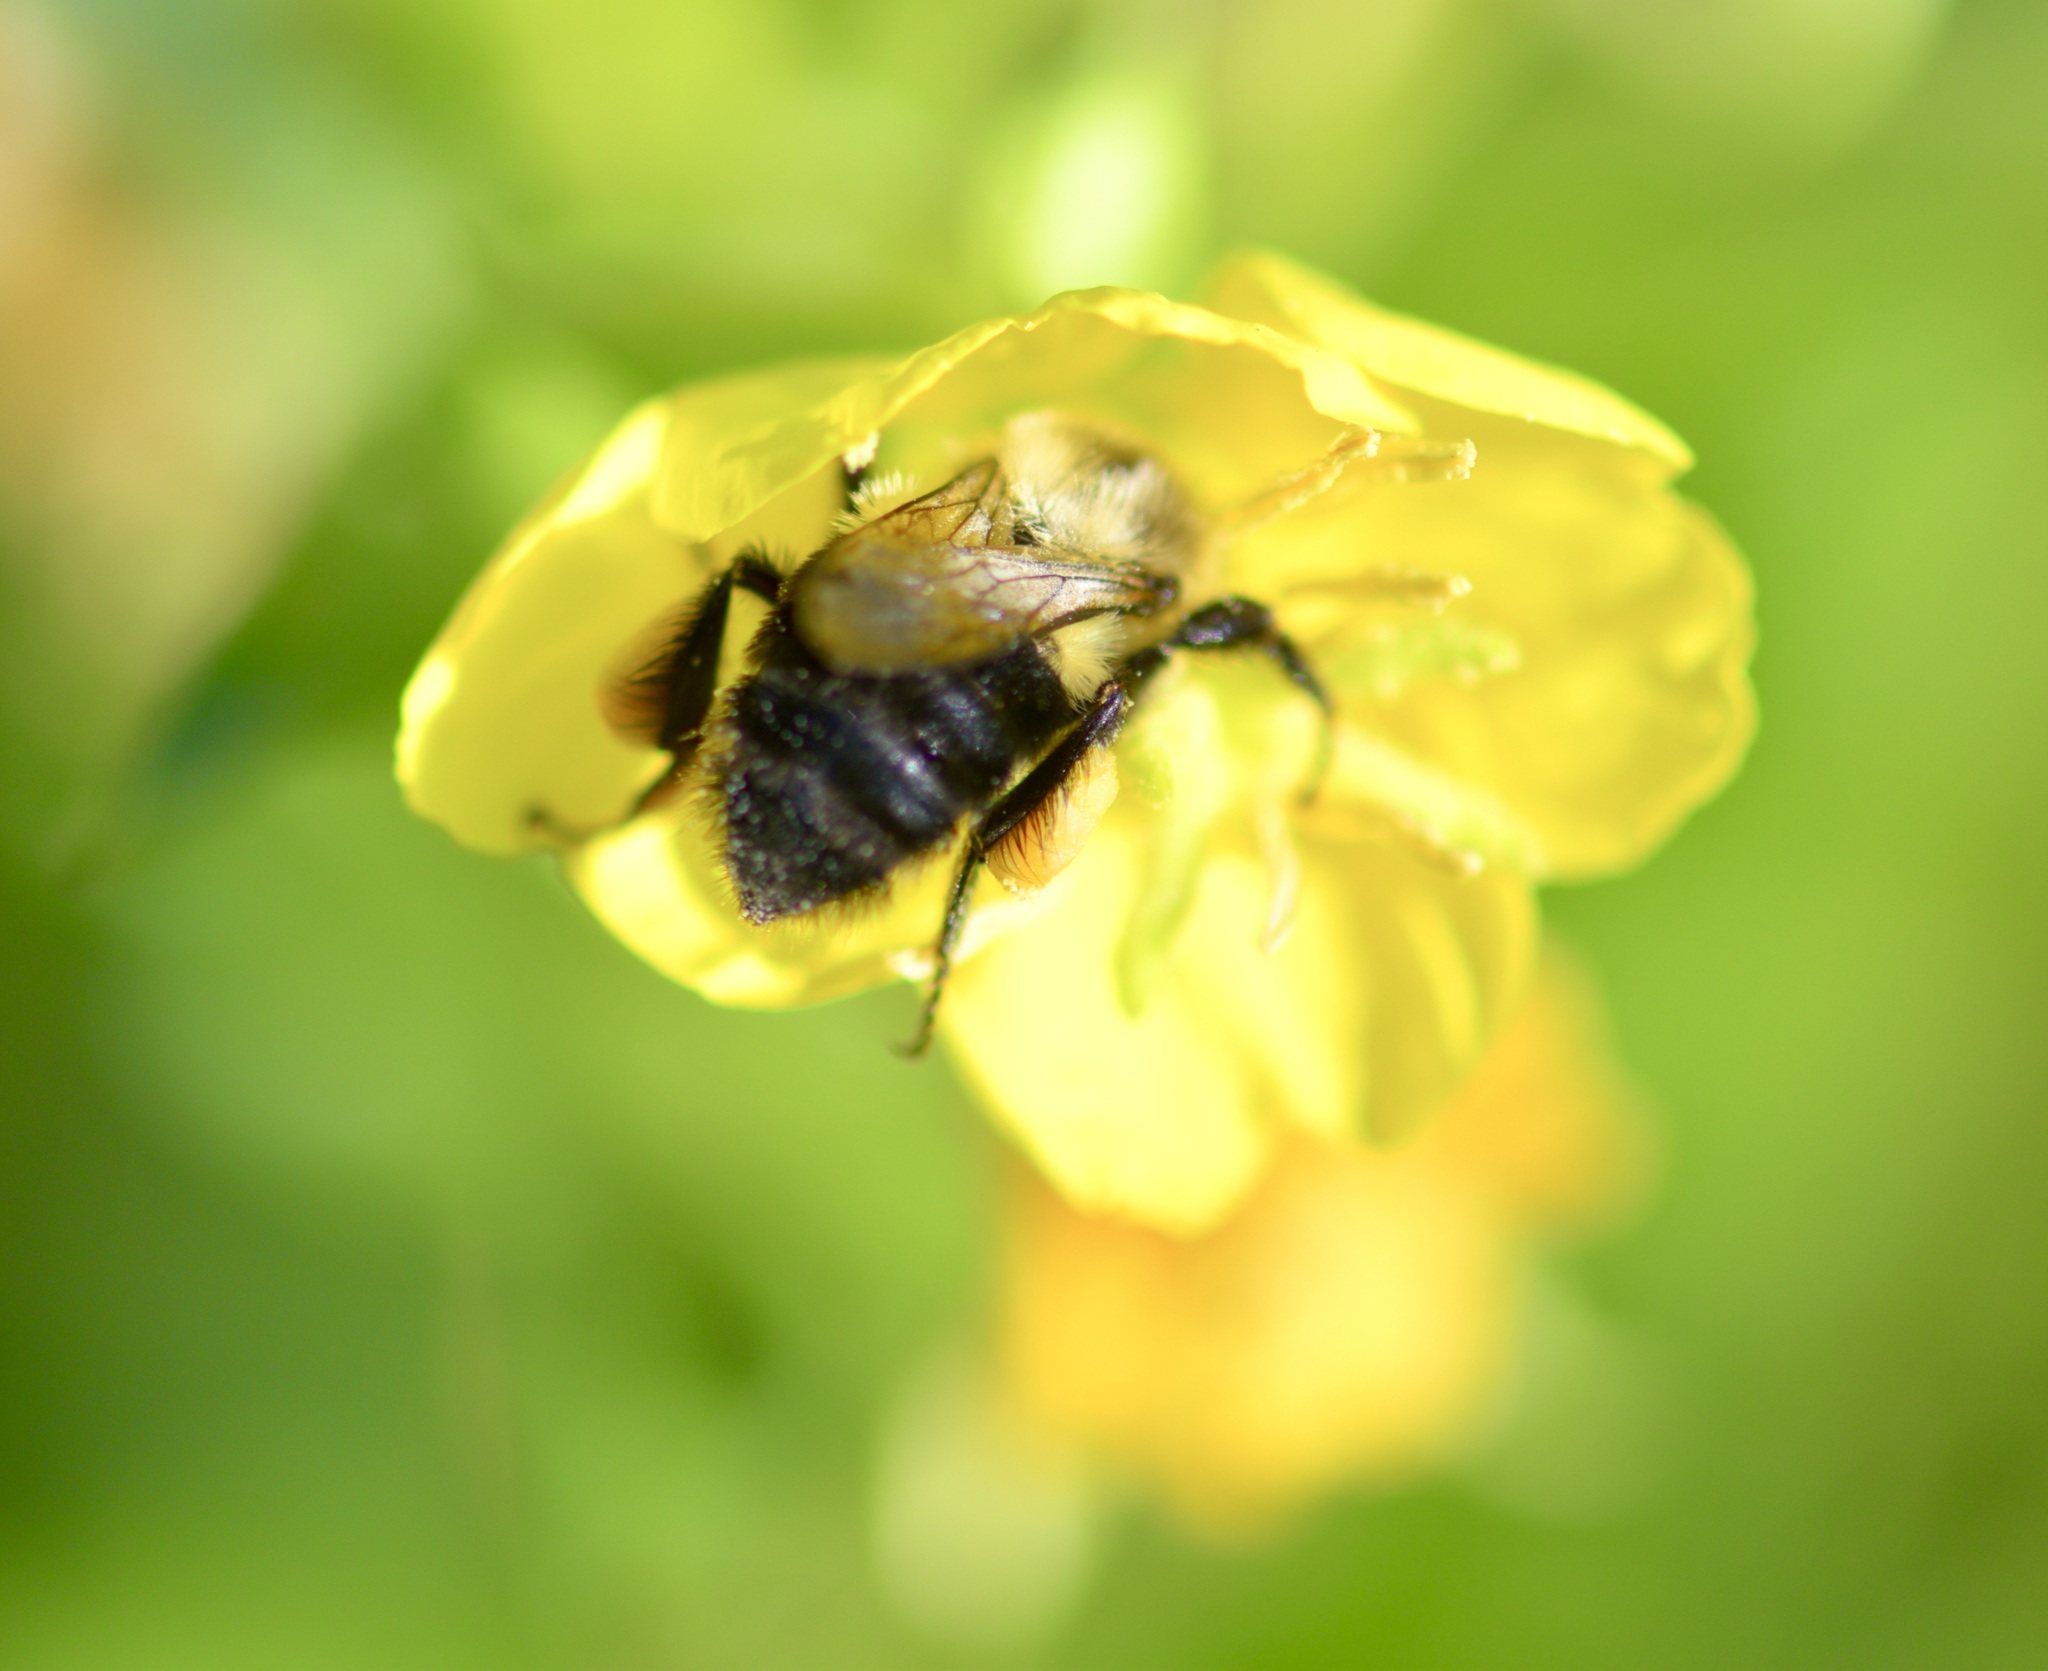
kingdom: Animalia
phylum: Arthropoda
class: Insecta
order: Hymenoptera
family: Apidae
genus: Bombus
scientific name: Bombus impatiens
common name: Common eastern bumble bee
